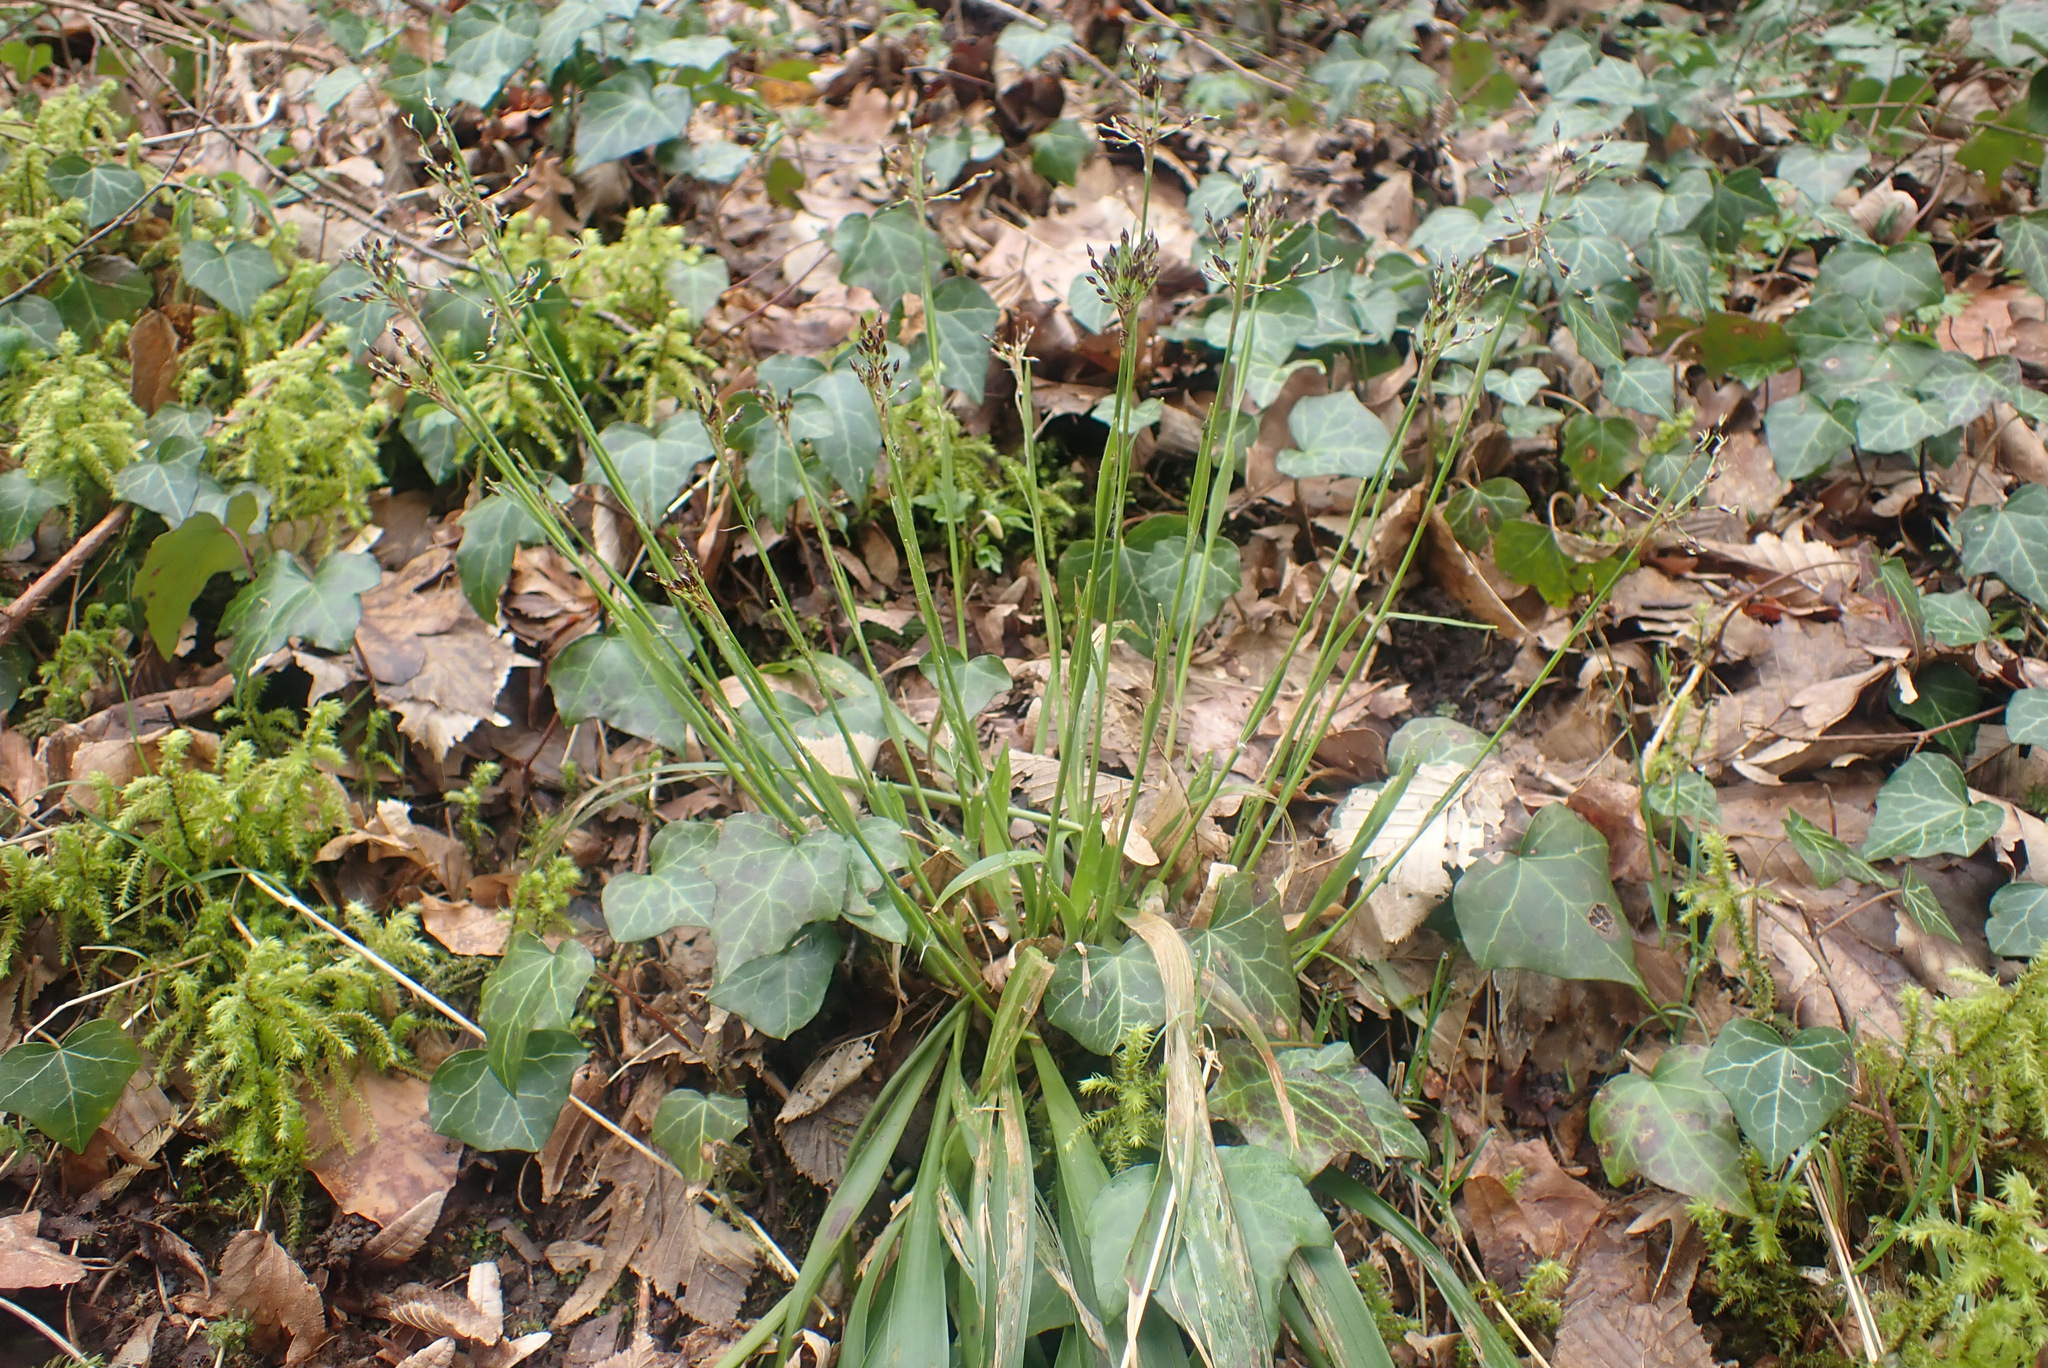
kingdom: Plantae
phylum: Tracheophyta
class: Liliopsida
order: Poales
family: Juncaceae
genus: Luzula
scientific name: Luzula pilosa
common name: Hairy wood-rush
